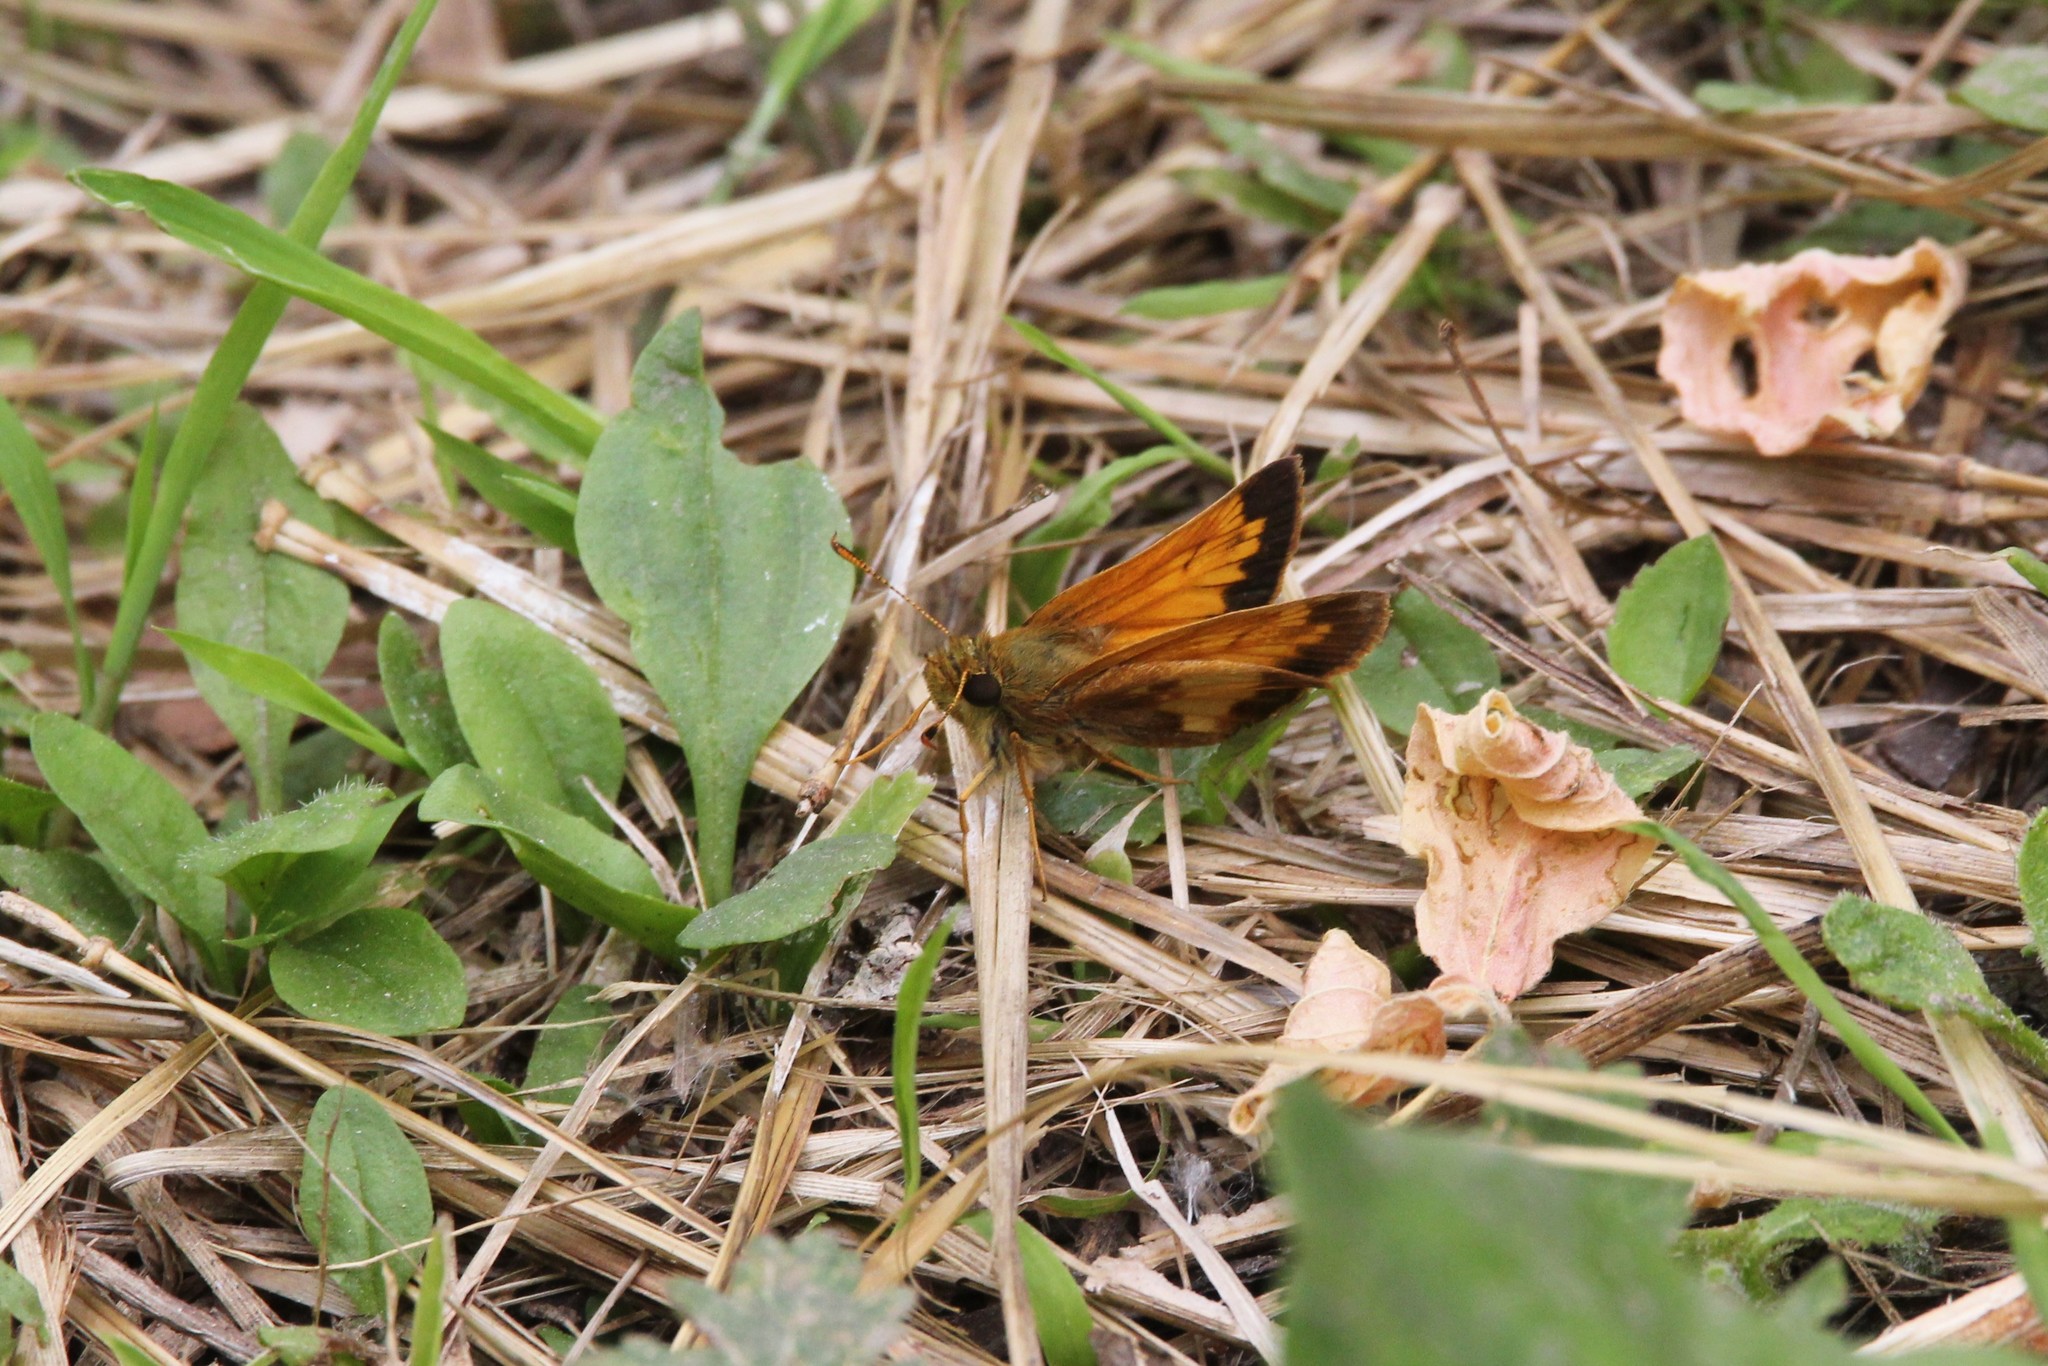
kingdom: Animalia
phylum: Arthropoda
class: Insecta
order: Lepidoptera
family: Hesperiidae
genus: Lon
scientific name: Lon hobomok
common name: Hobomok skipper
